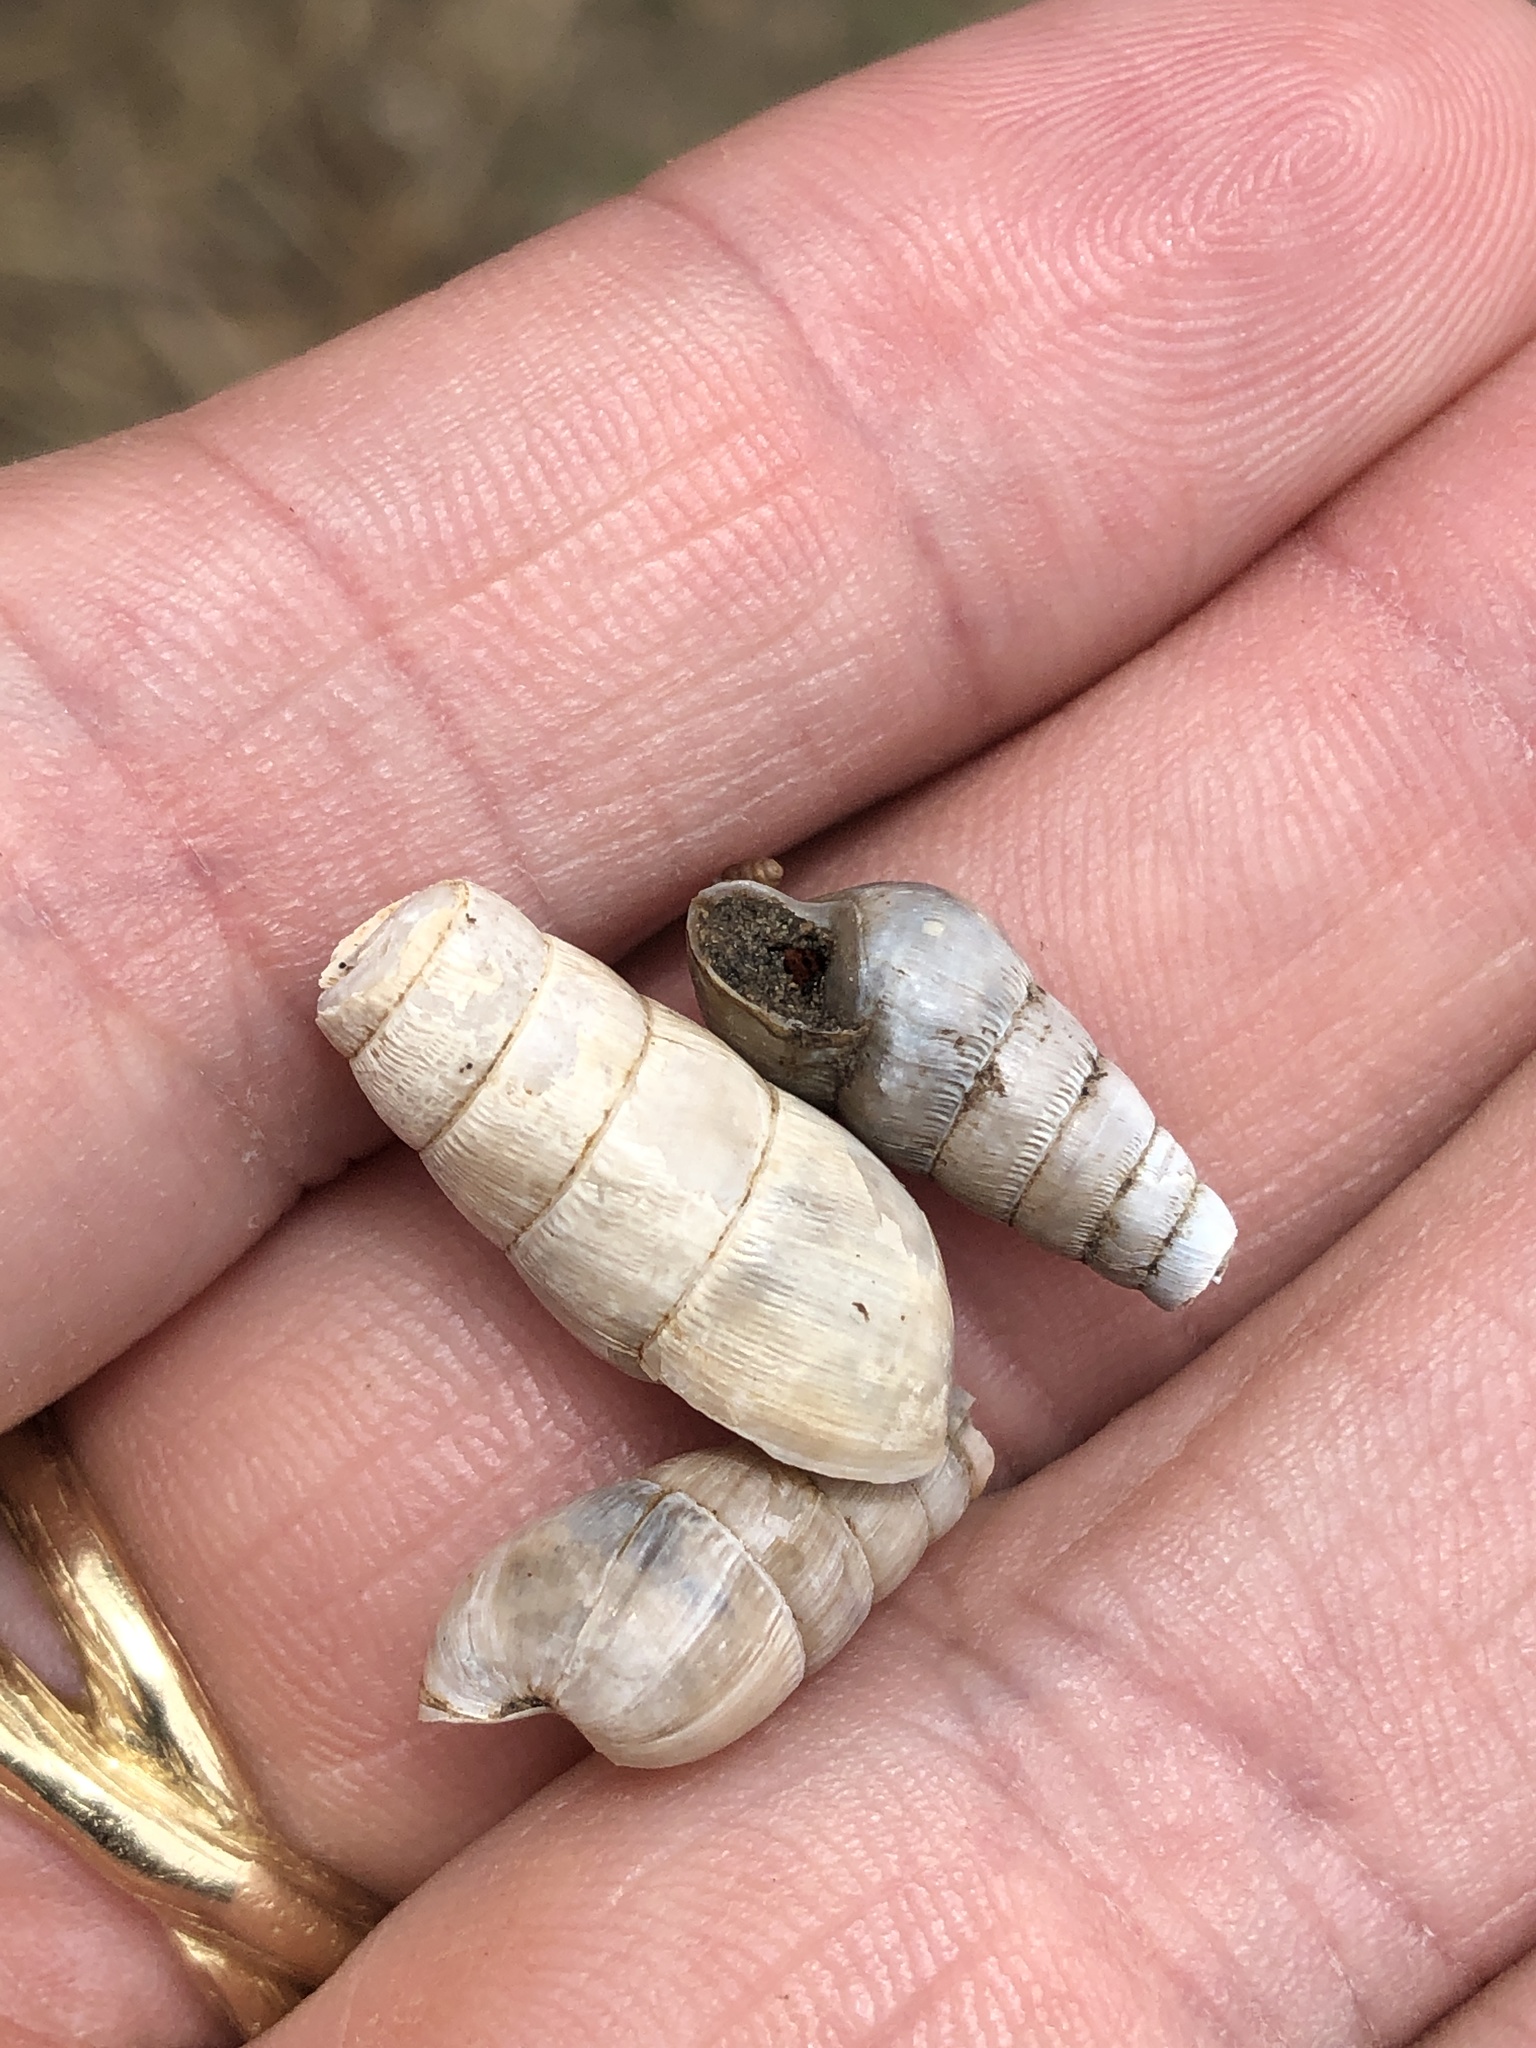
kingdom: Animalia
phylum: Mollusca
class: Gastropoda
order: Stylommatophora
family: Achatinidae
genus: Rumina
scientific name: Rumina decollata
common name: Decollate snail
